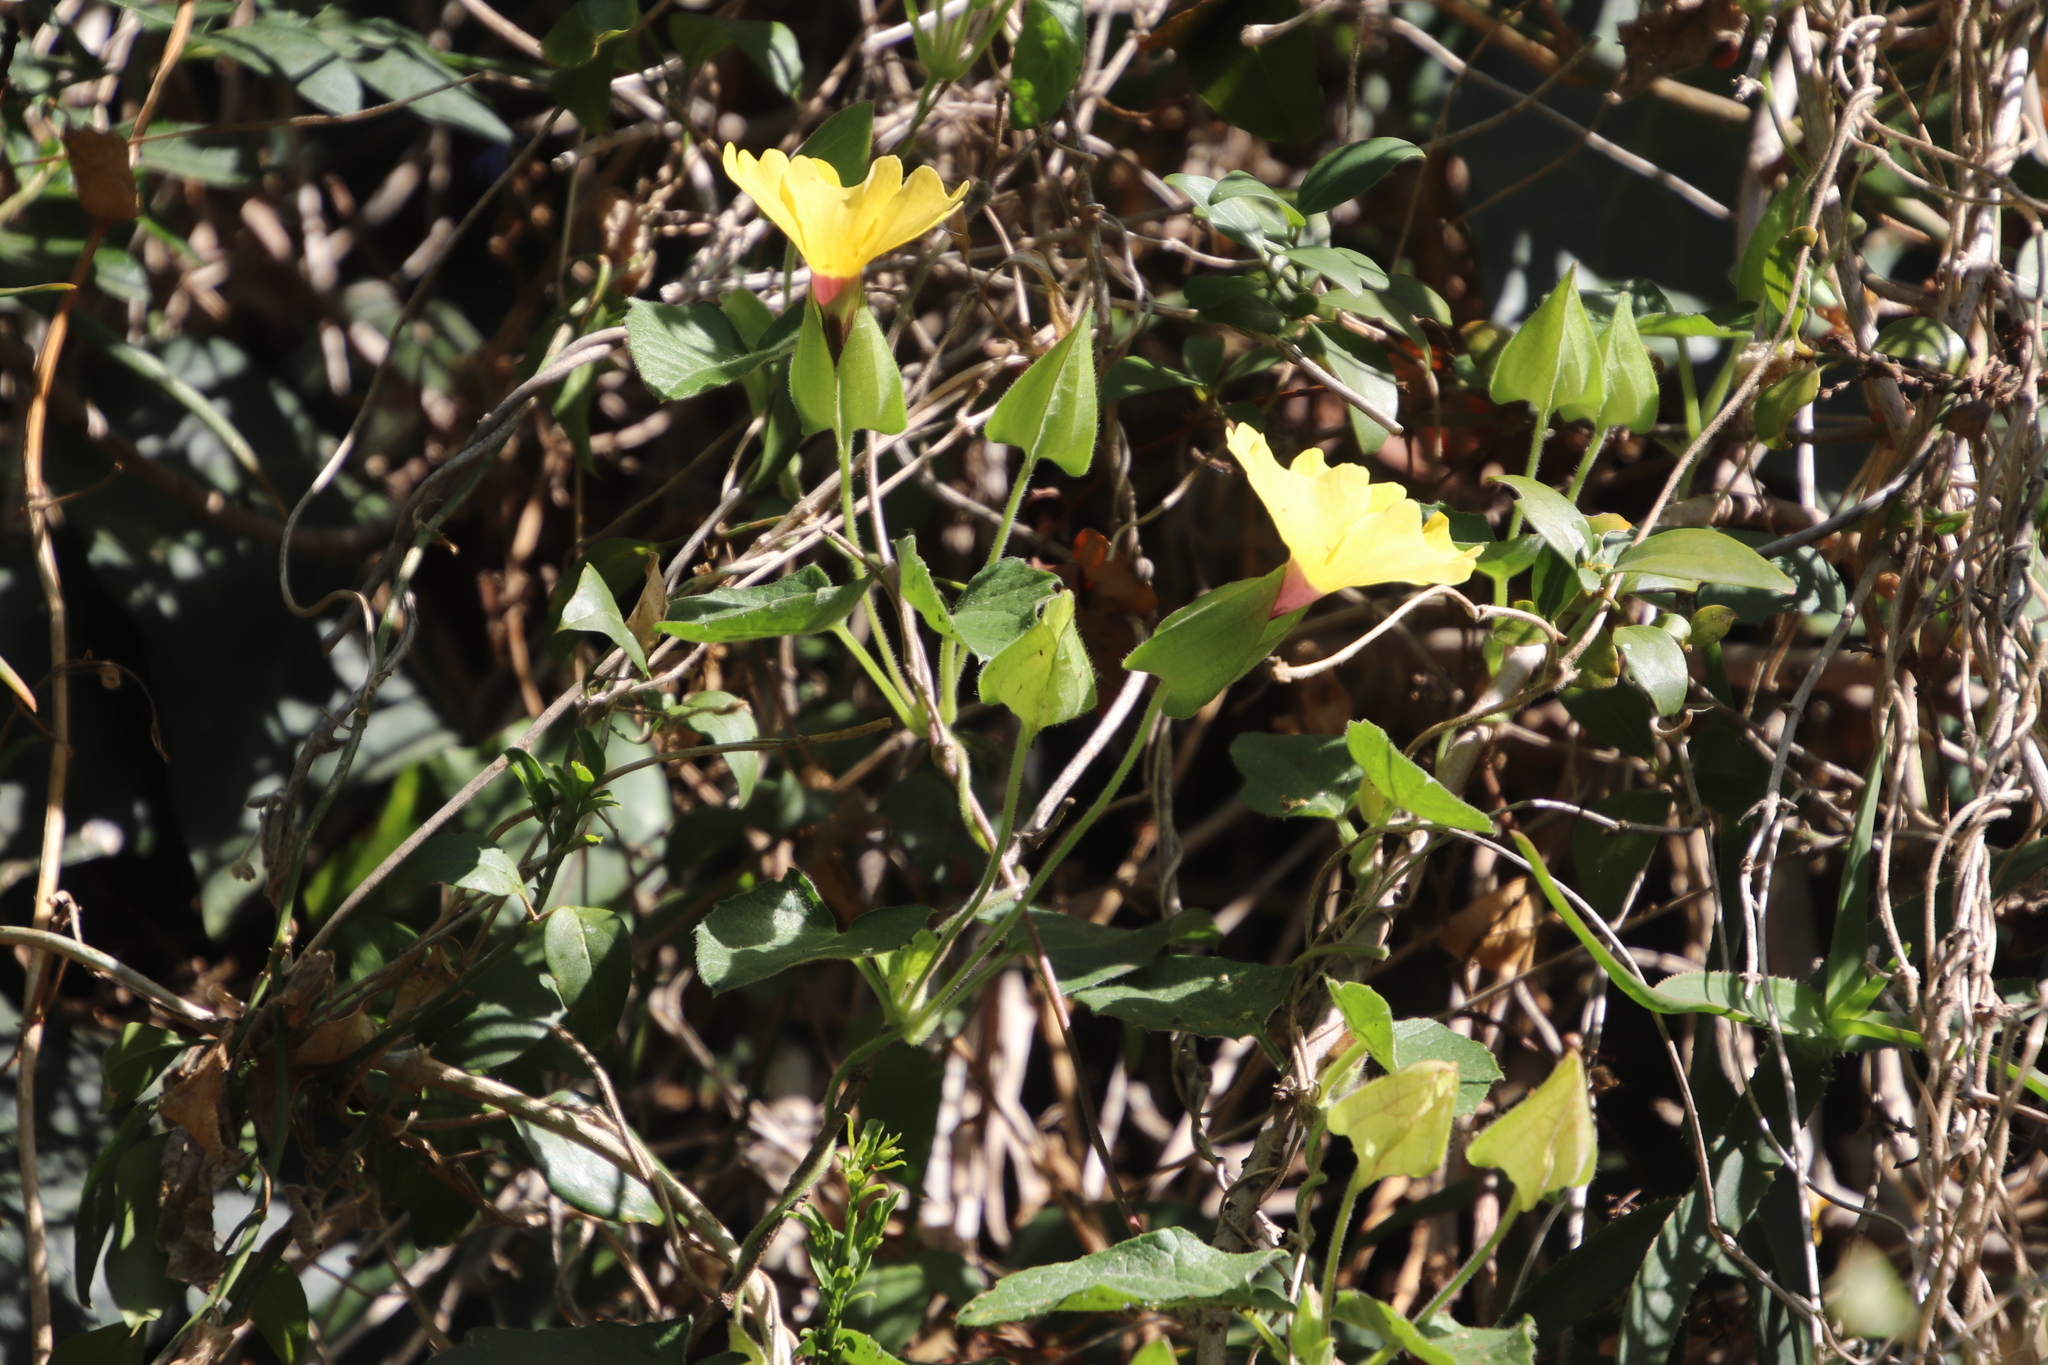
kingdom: Plantae
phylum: Tracheophyta
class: Magnoliopsida
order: Lamiales
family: Acanthaceae
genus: Thunbergia
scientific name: Thunbergia alata
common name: Blackeyed susan vine
